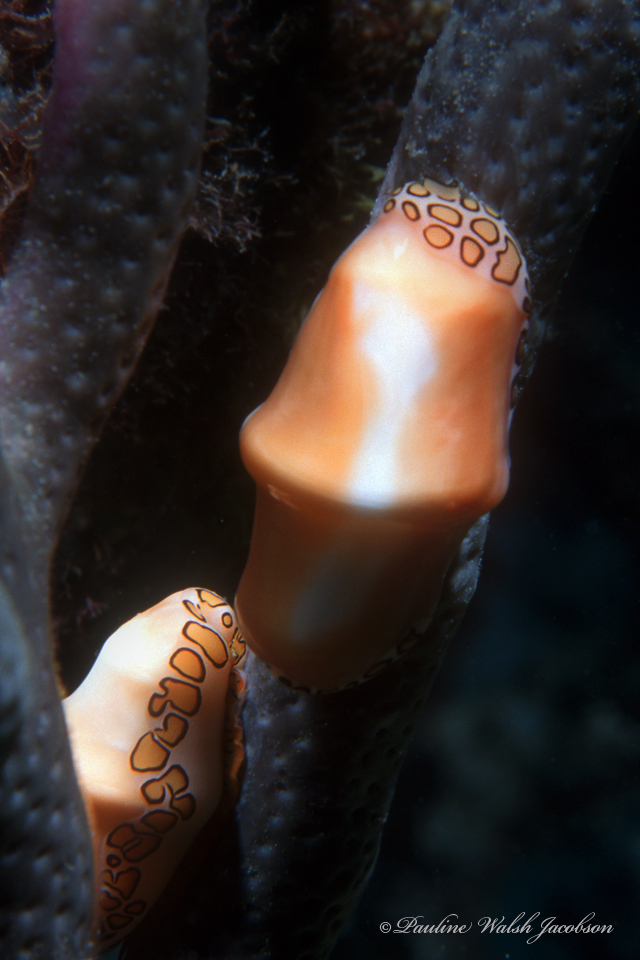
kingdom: Animalia
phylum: Mollusca
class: Gastropoda
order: Littorinimorpha
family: Ovulidae
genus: Cyphoma
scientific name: Cyphoma gibbosum
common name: Flamingo tongue
